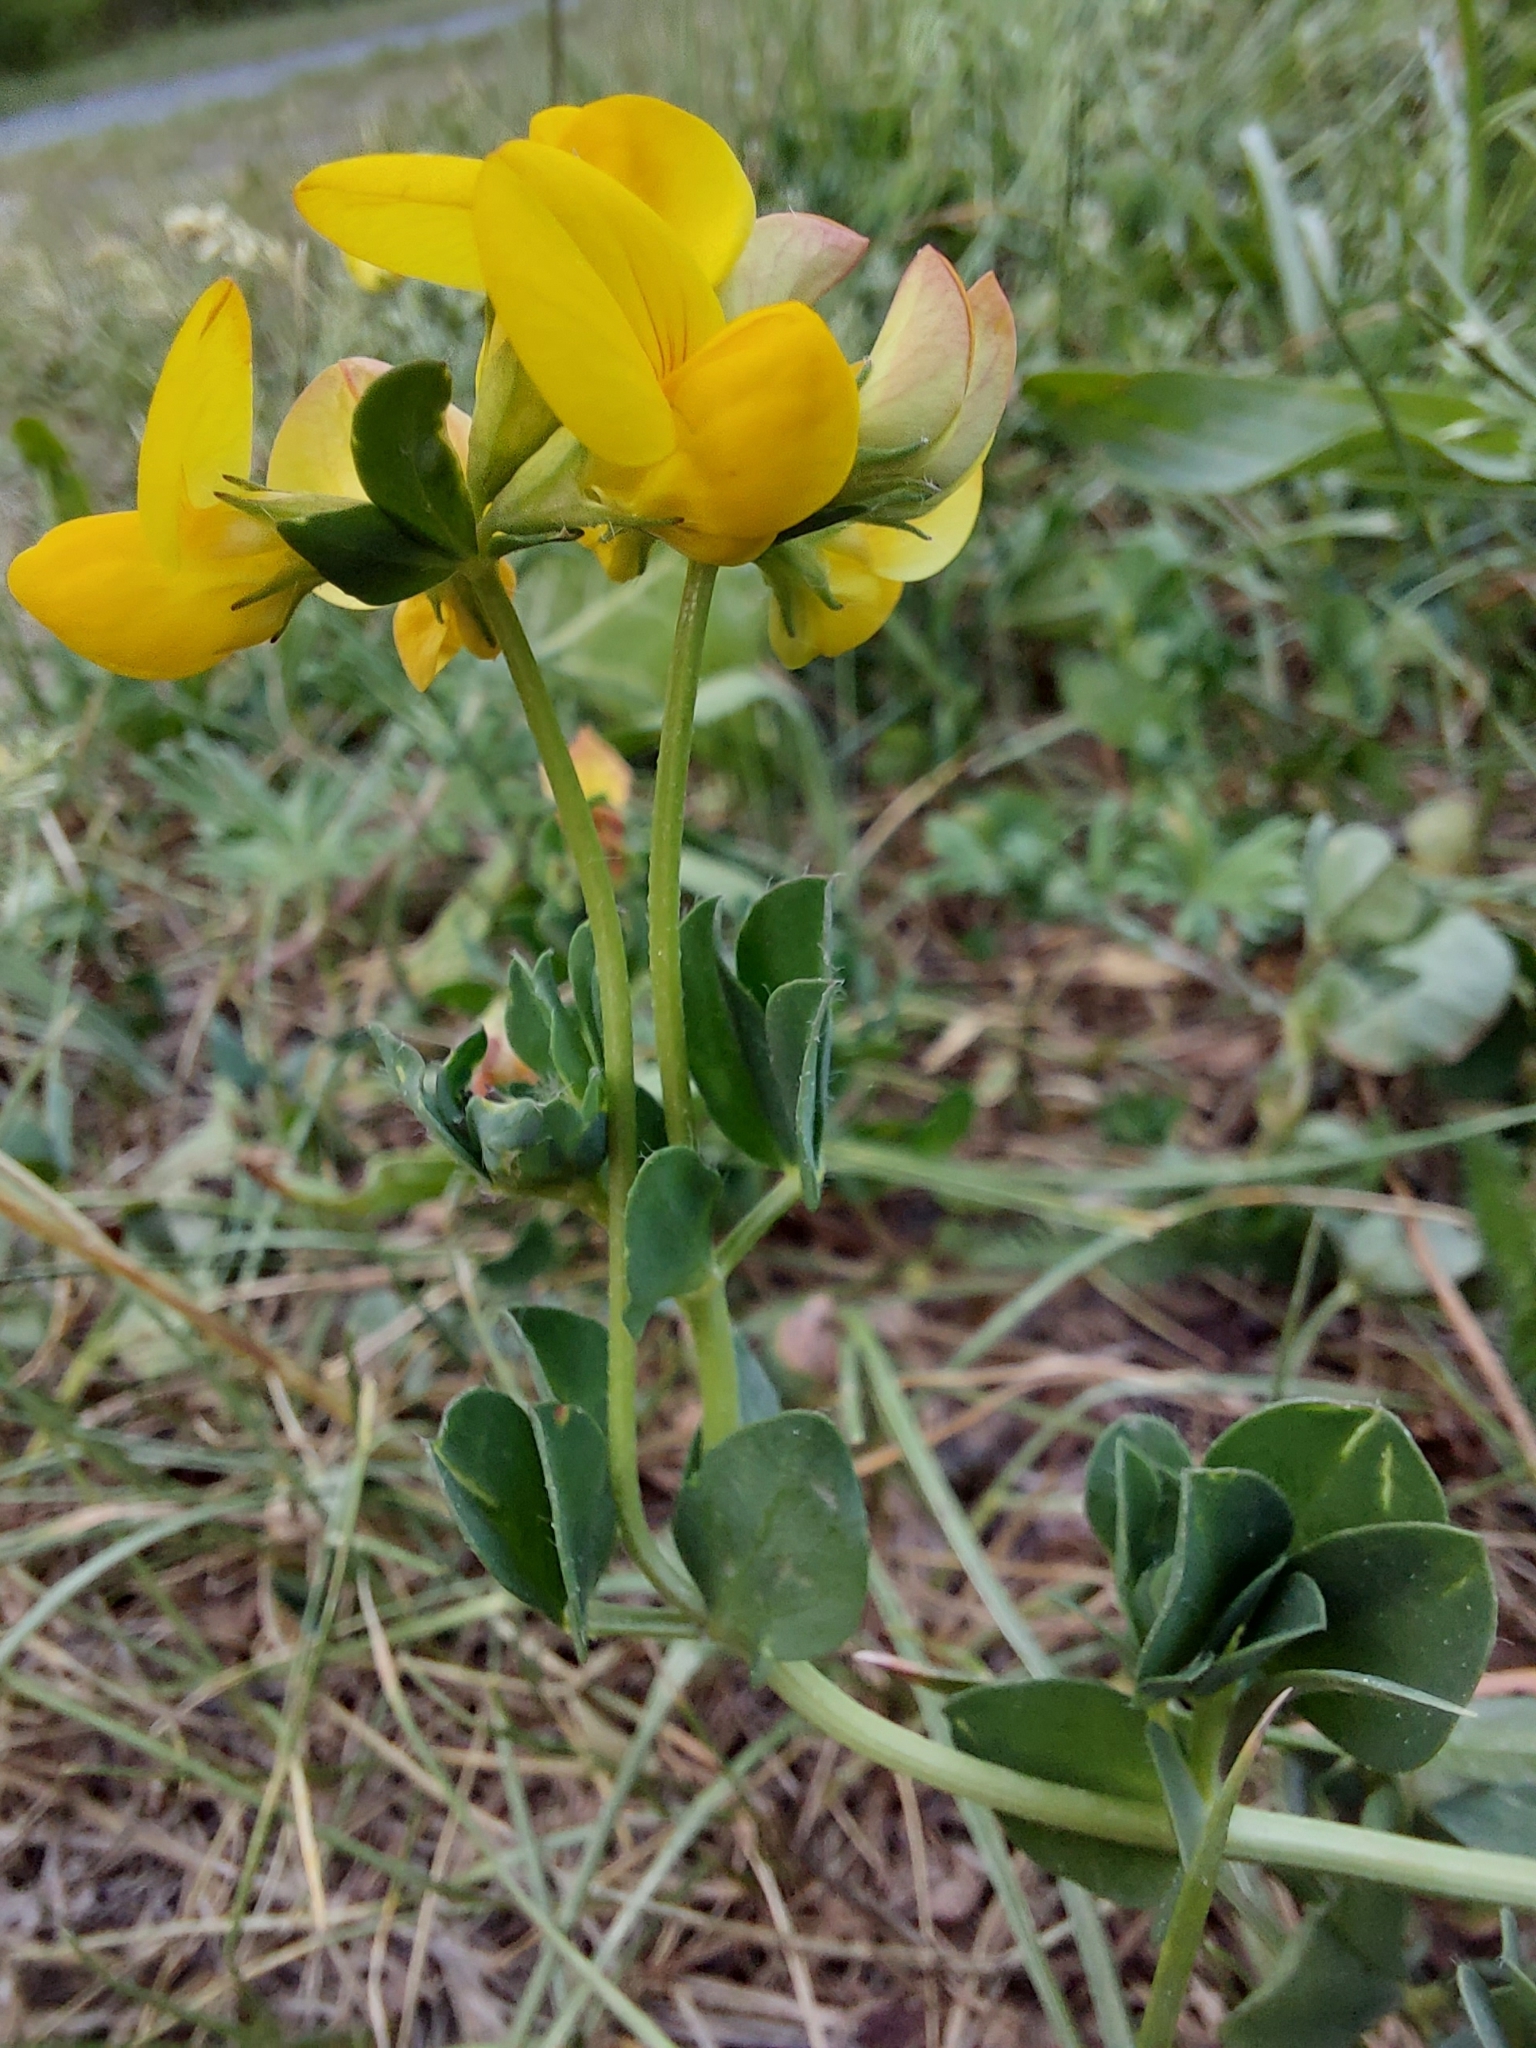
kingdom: Plantae
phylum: Tracheophyta
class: Magnoliopsida
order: Fabales
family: Fabaceae
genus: Lotus
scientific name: Lotus corniculatus
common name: Common bird's-foot-trefoil
